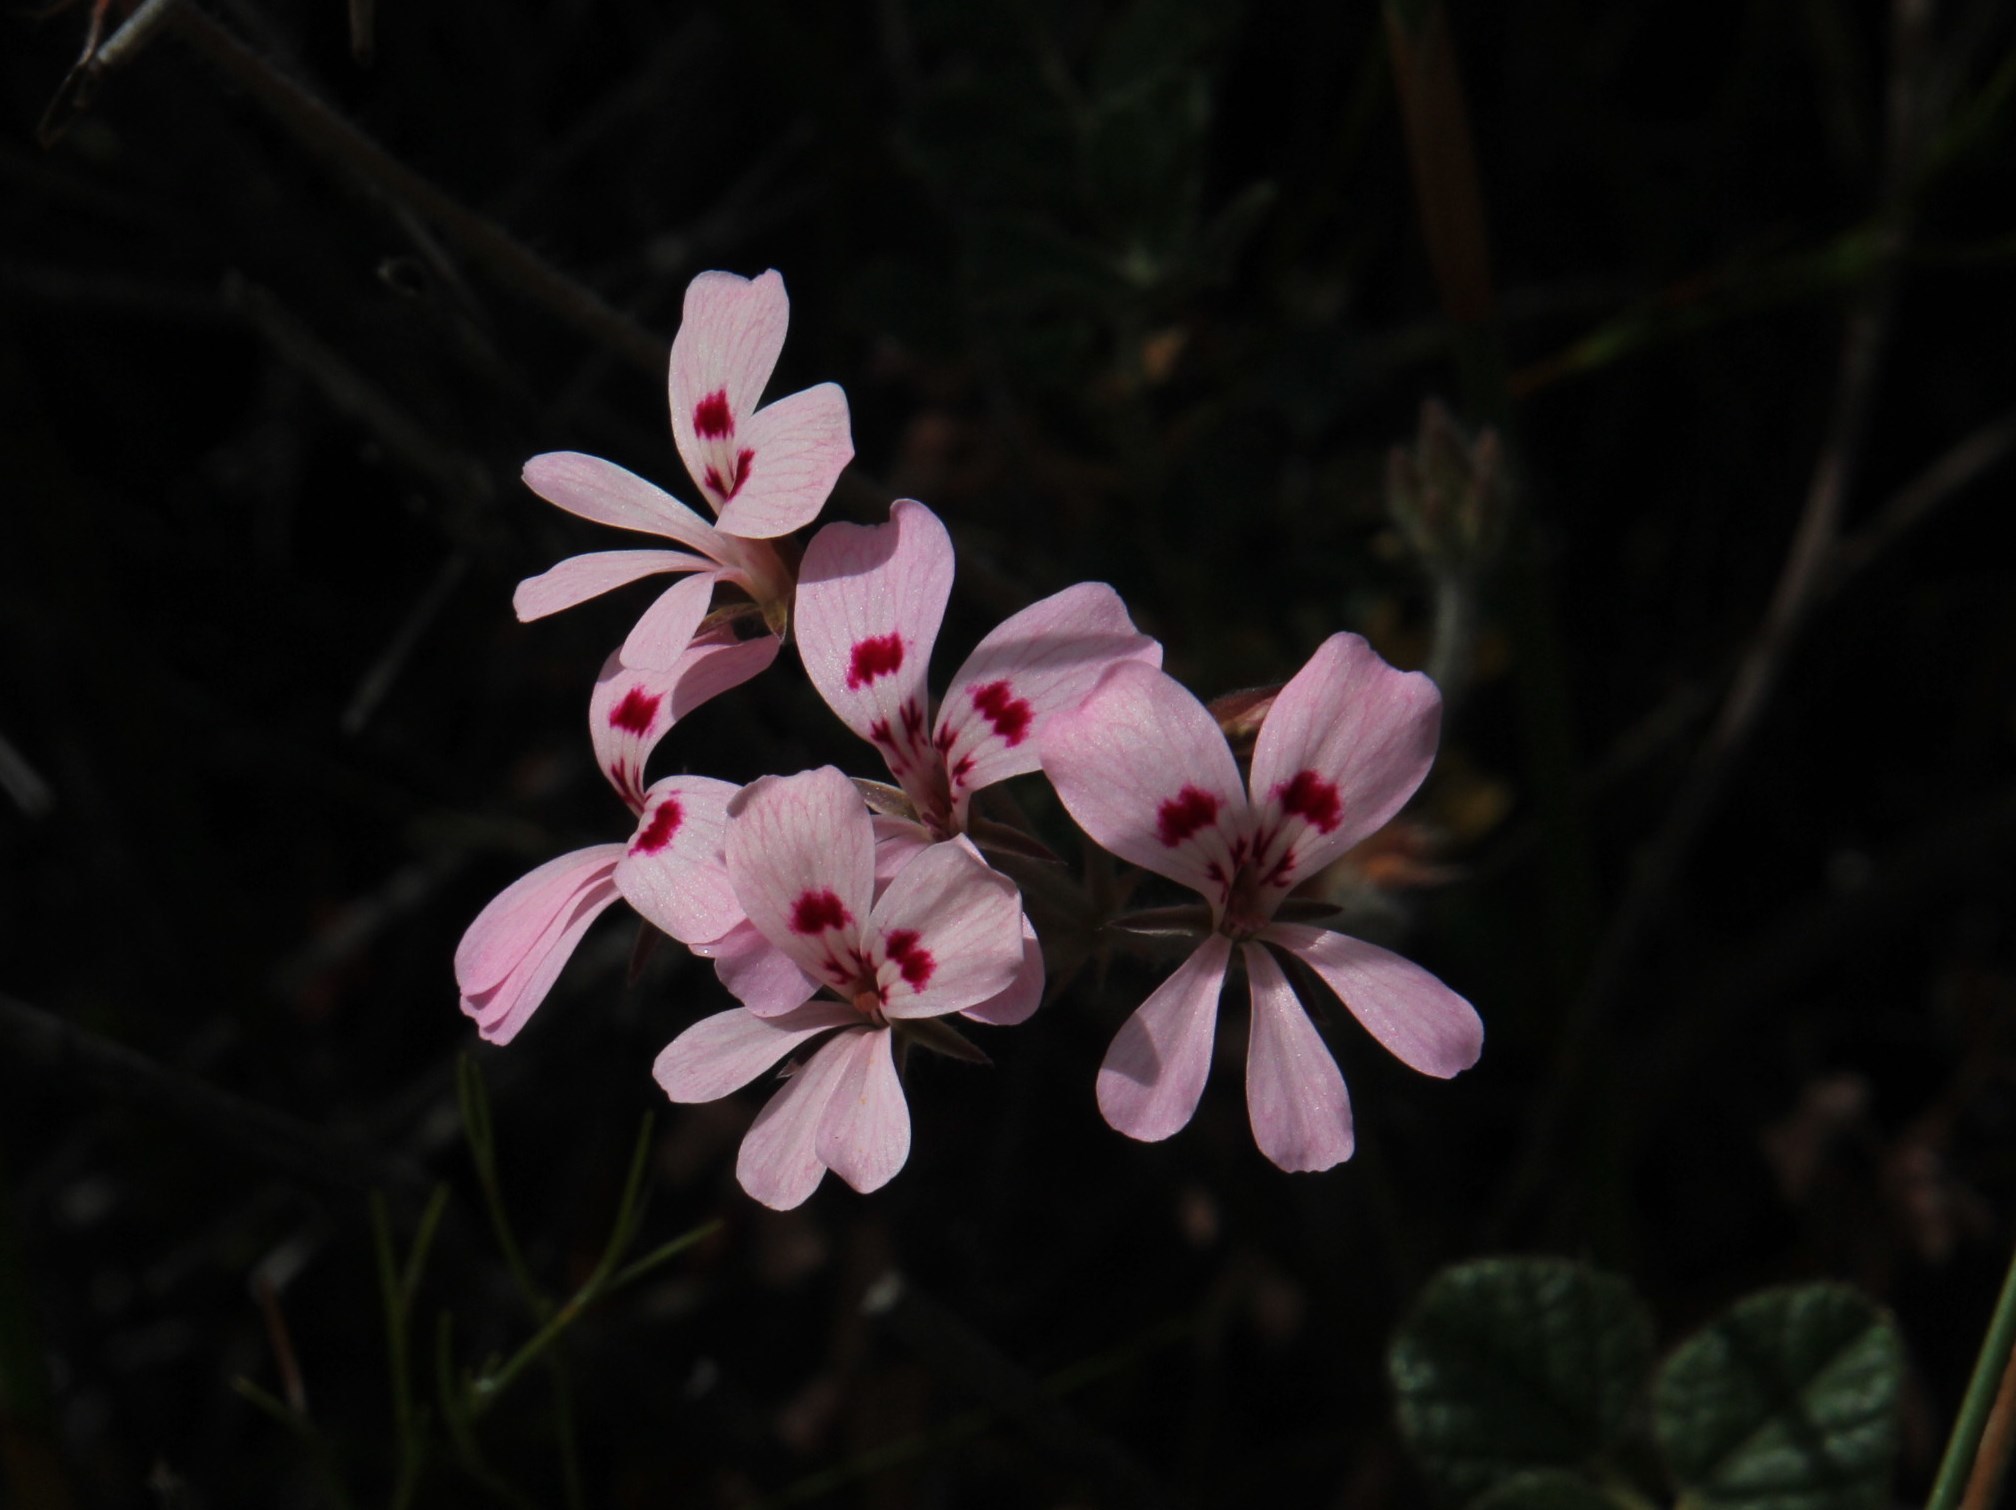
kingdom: Plantae
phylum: Tracheophyta
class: Magnoliopsida
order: Geraniales
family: Geraniaceae
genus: Pelargonium
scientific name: Pelargonium pinnatum
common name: Pinnated pelargonium
